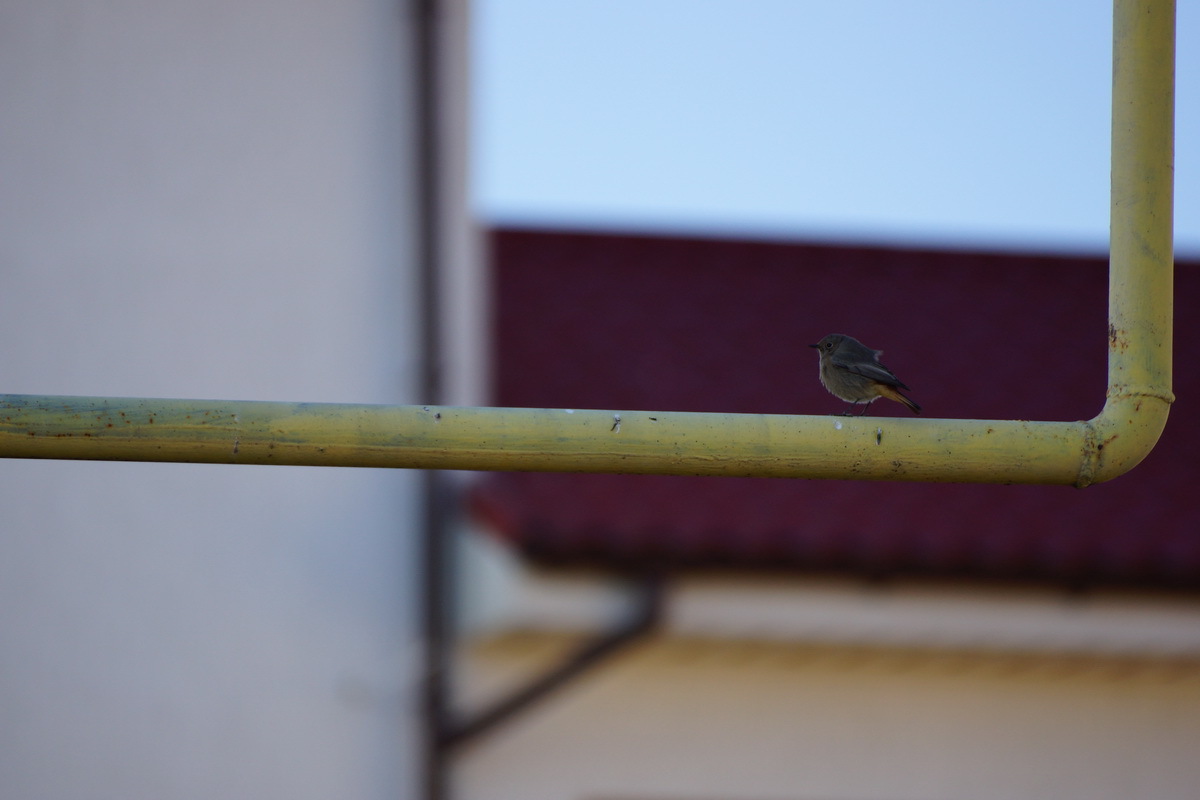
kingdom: Animalia
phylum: Chordata
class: Aves
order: Passeriformes
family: Muscicapidae
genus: Phoenicurus
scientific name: Phoenicurus ochruros
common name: Black redstart
